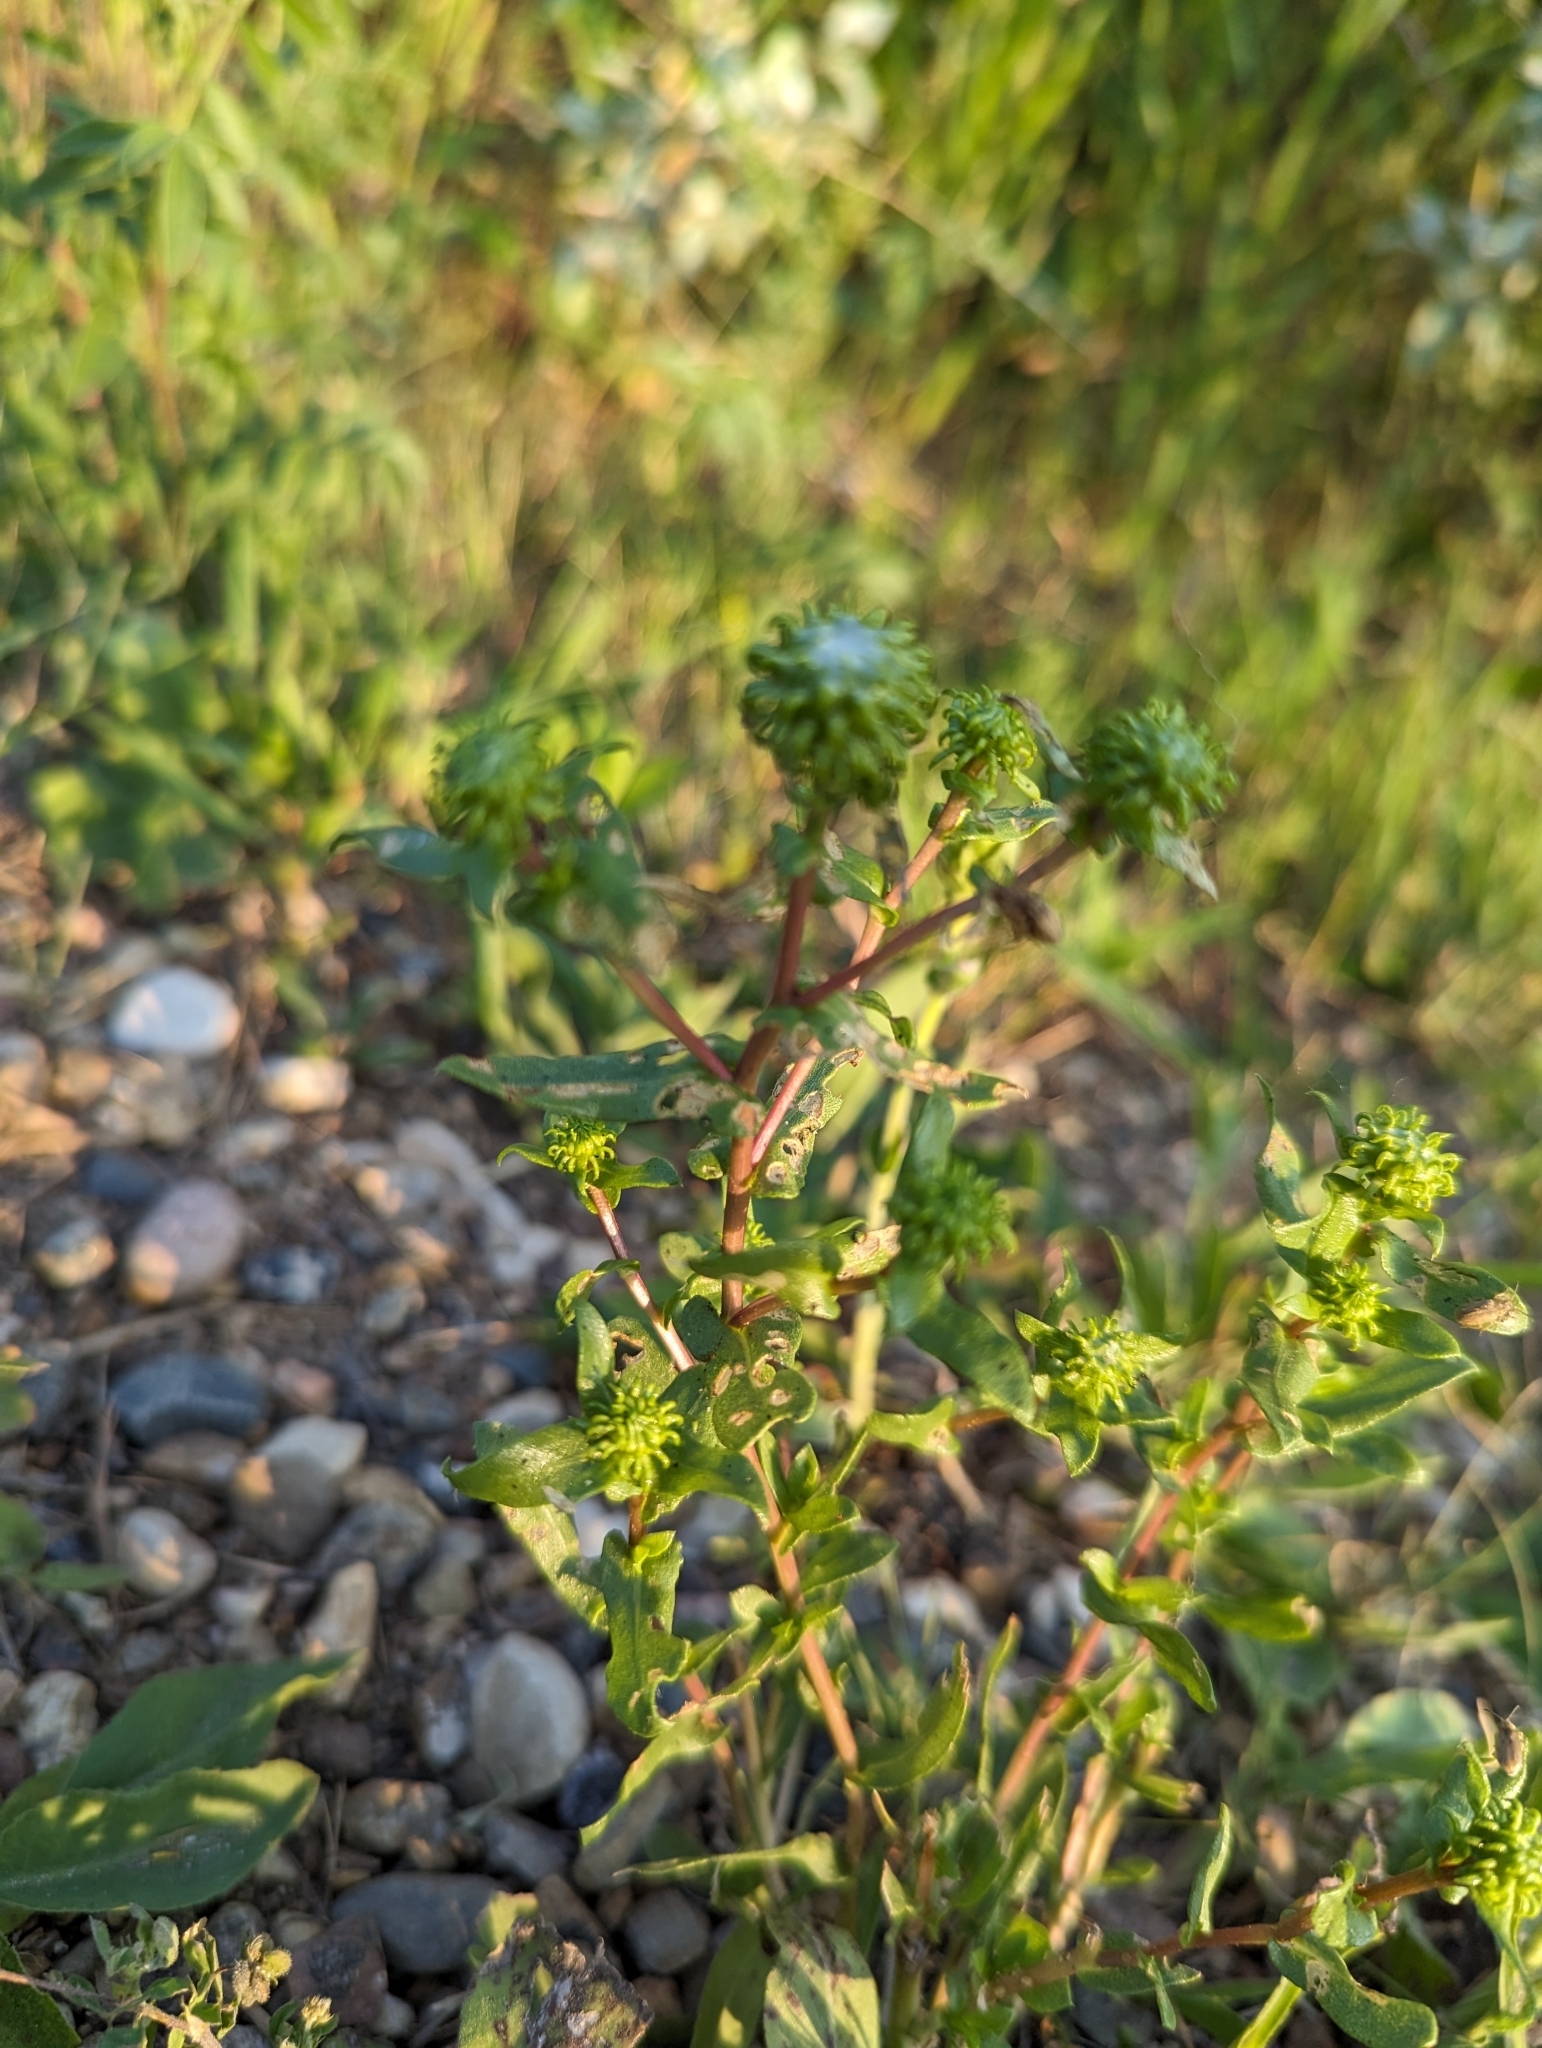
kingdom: Plantae
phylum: Tracheophyta
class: Magnoliopsida
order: Asterales
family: Asteraceae
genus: Grindelia
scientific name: Grindelia squarrosa
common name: Curly-cup gumweed
